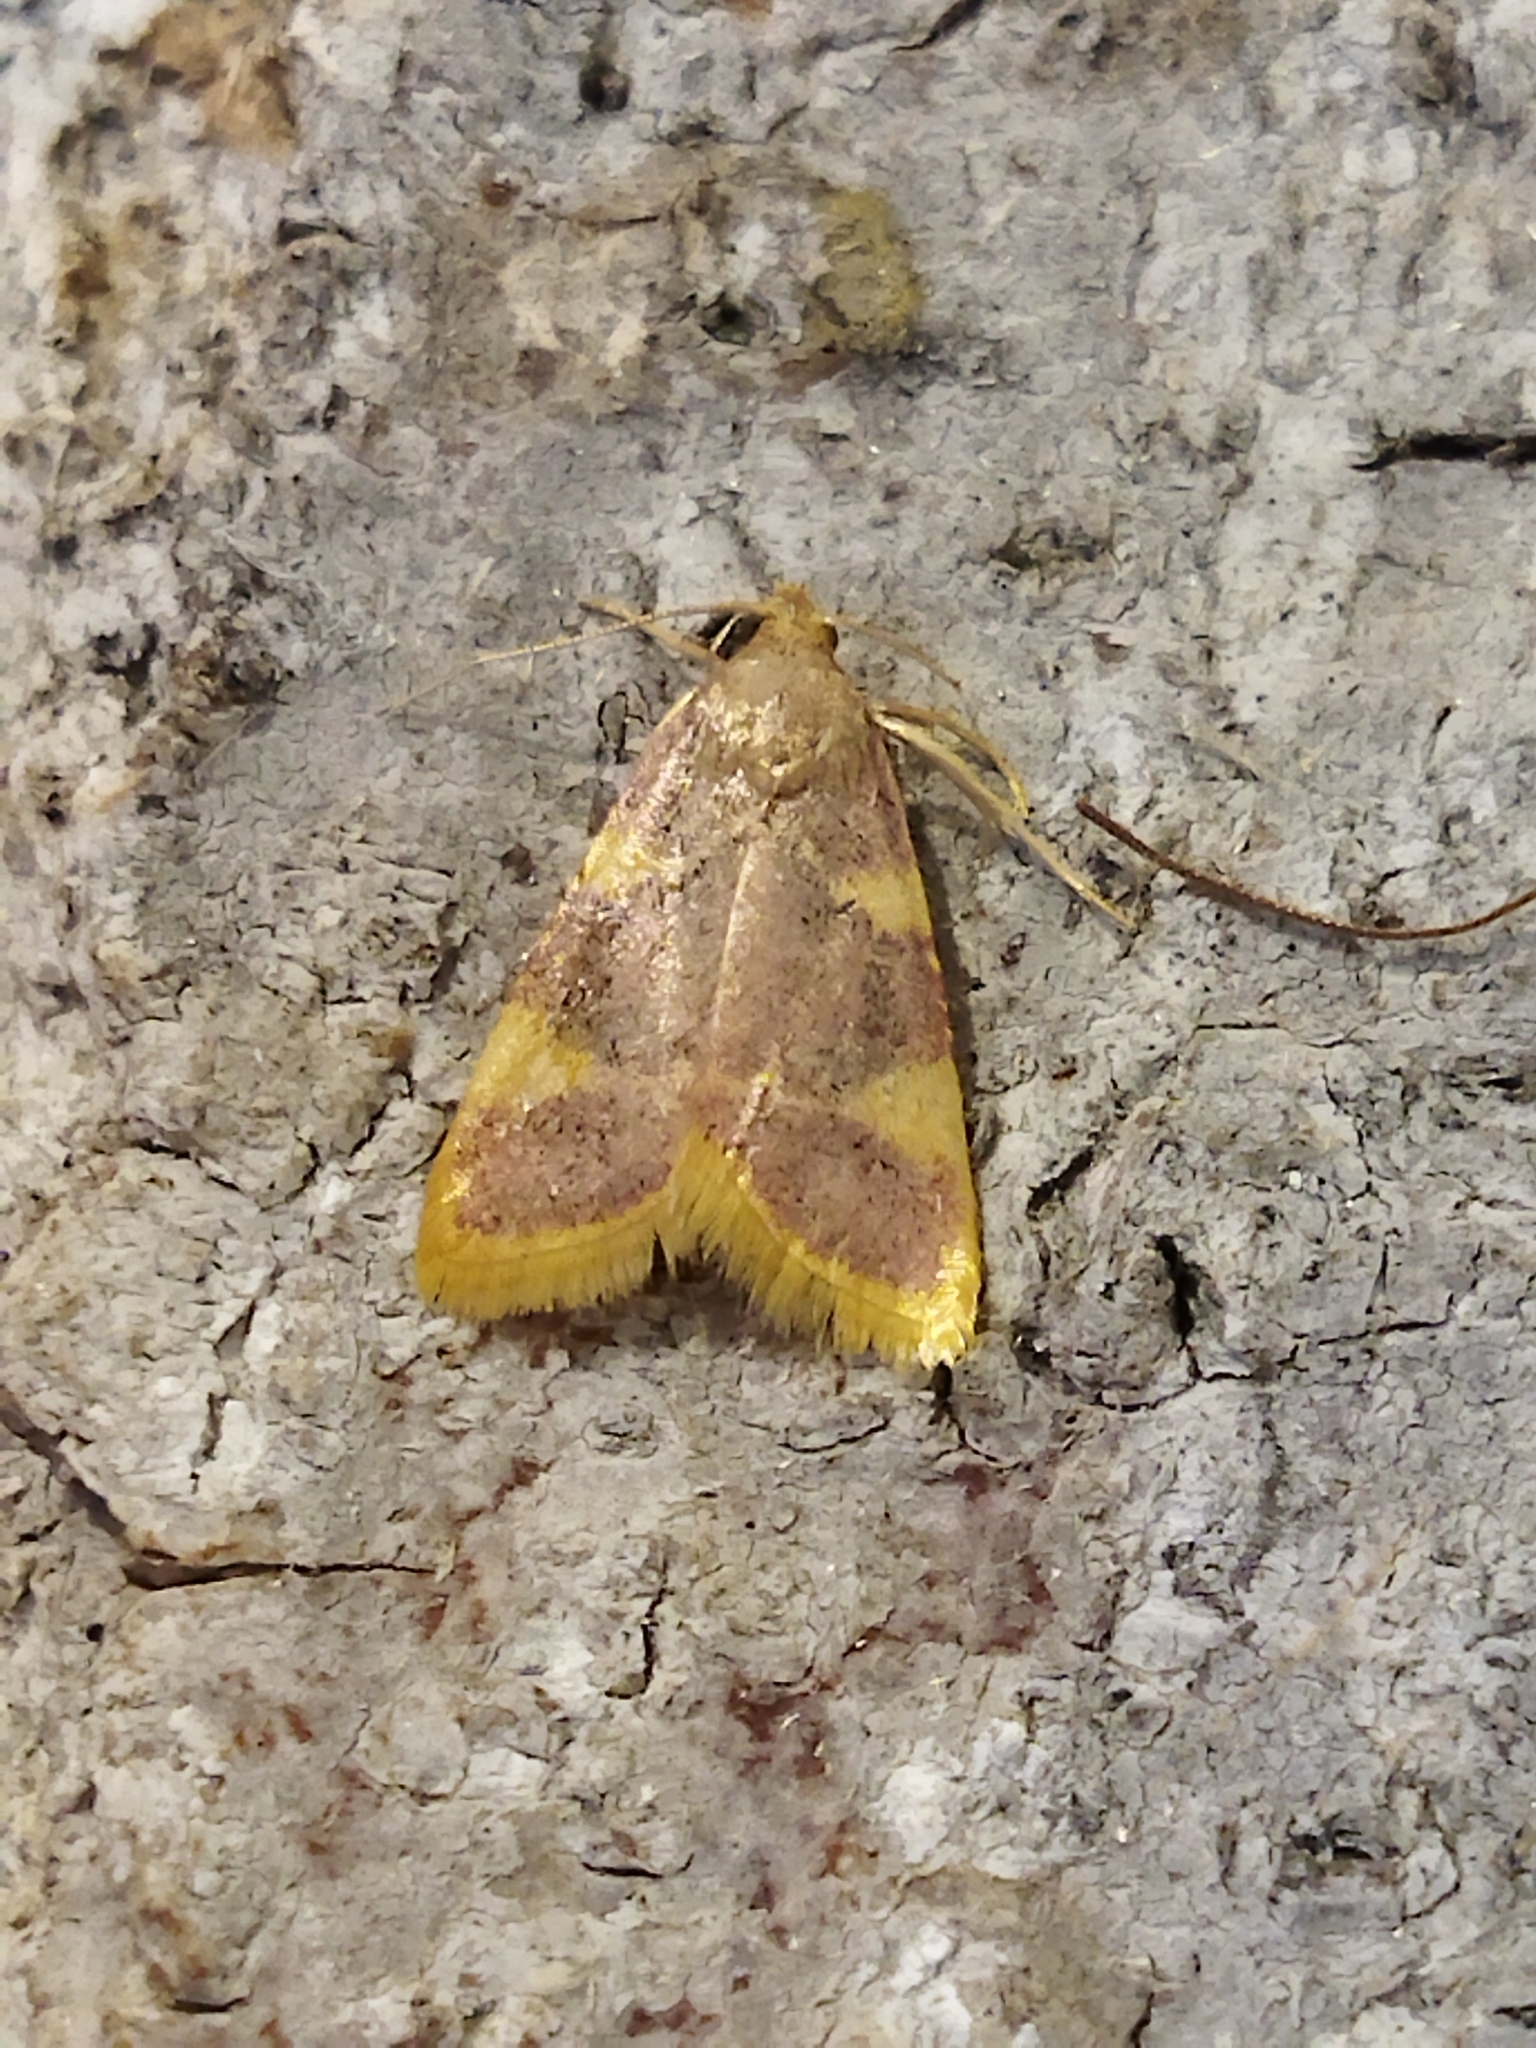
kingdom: Animalia
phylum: Arthropoda
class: Insecta
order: Lepidoptera
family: Pyralidae
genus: Hypsopygia
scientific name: Hypsopygia costalis
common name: Gold triangle
